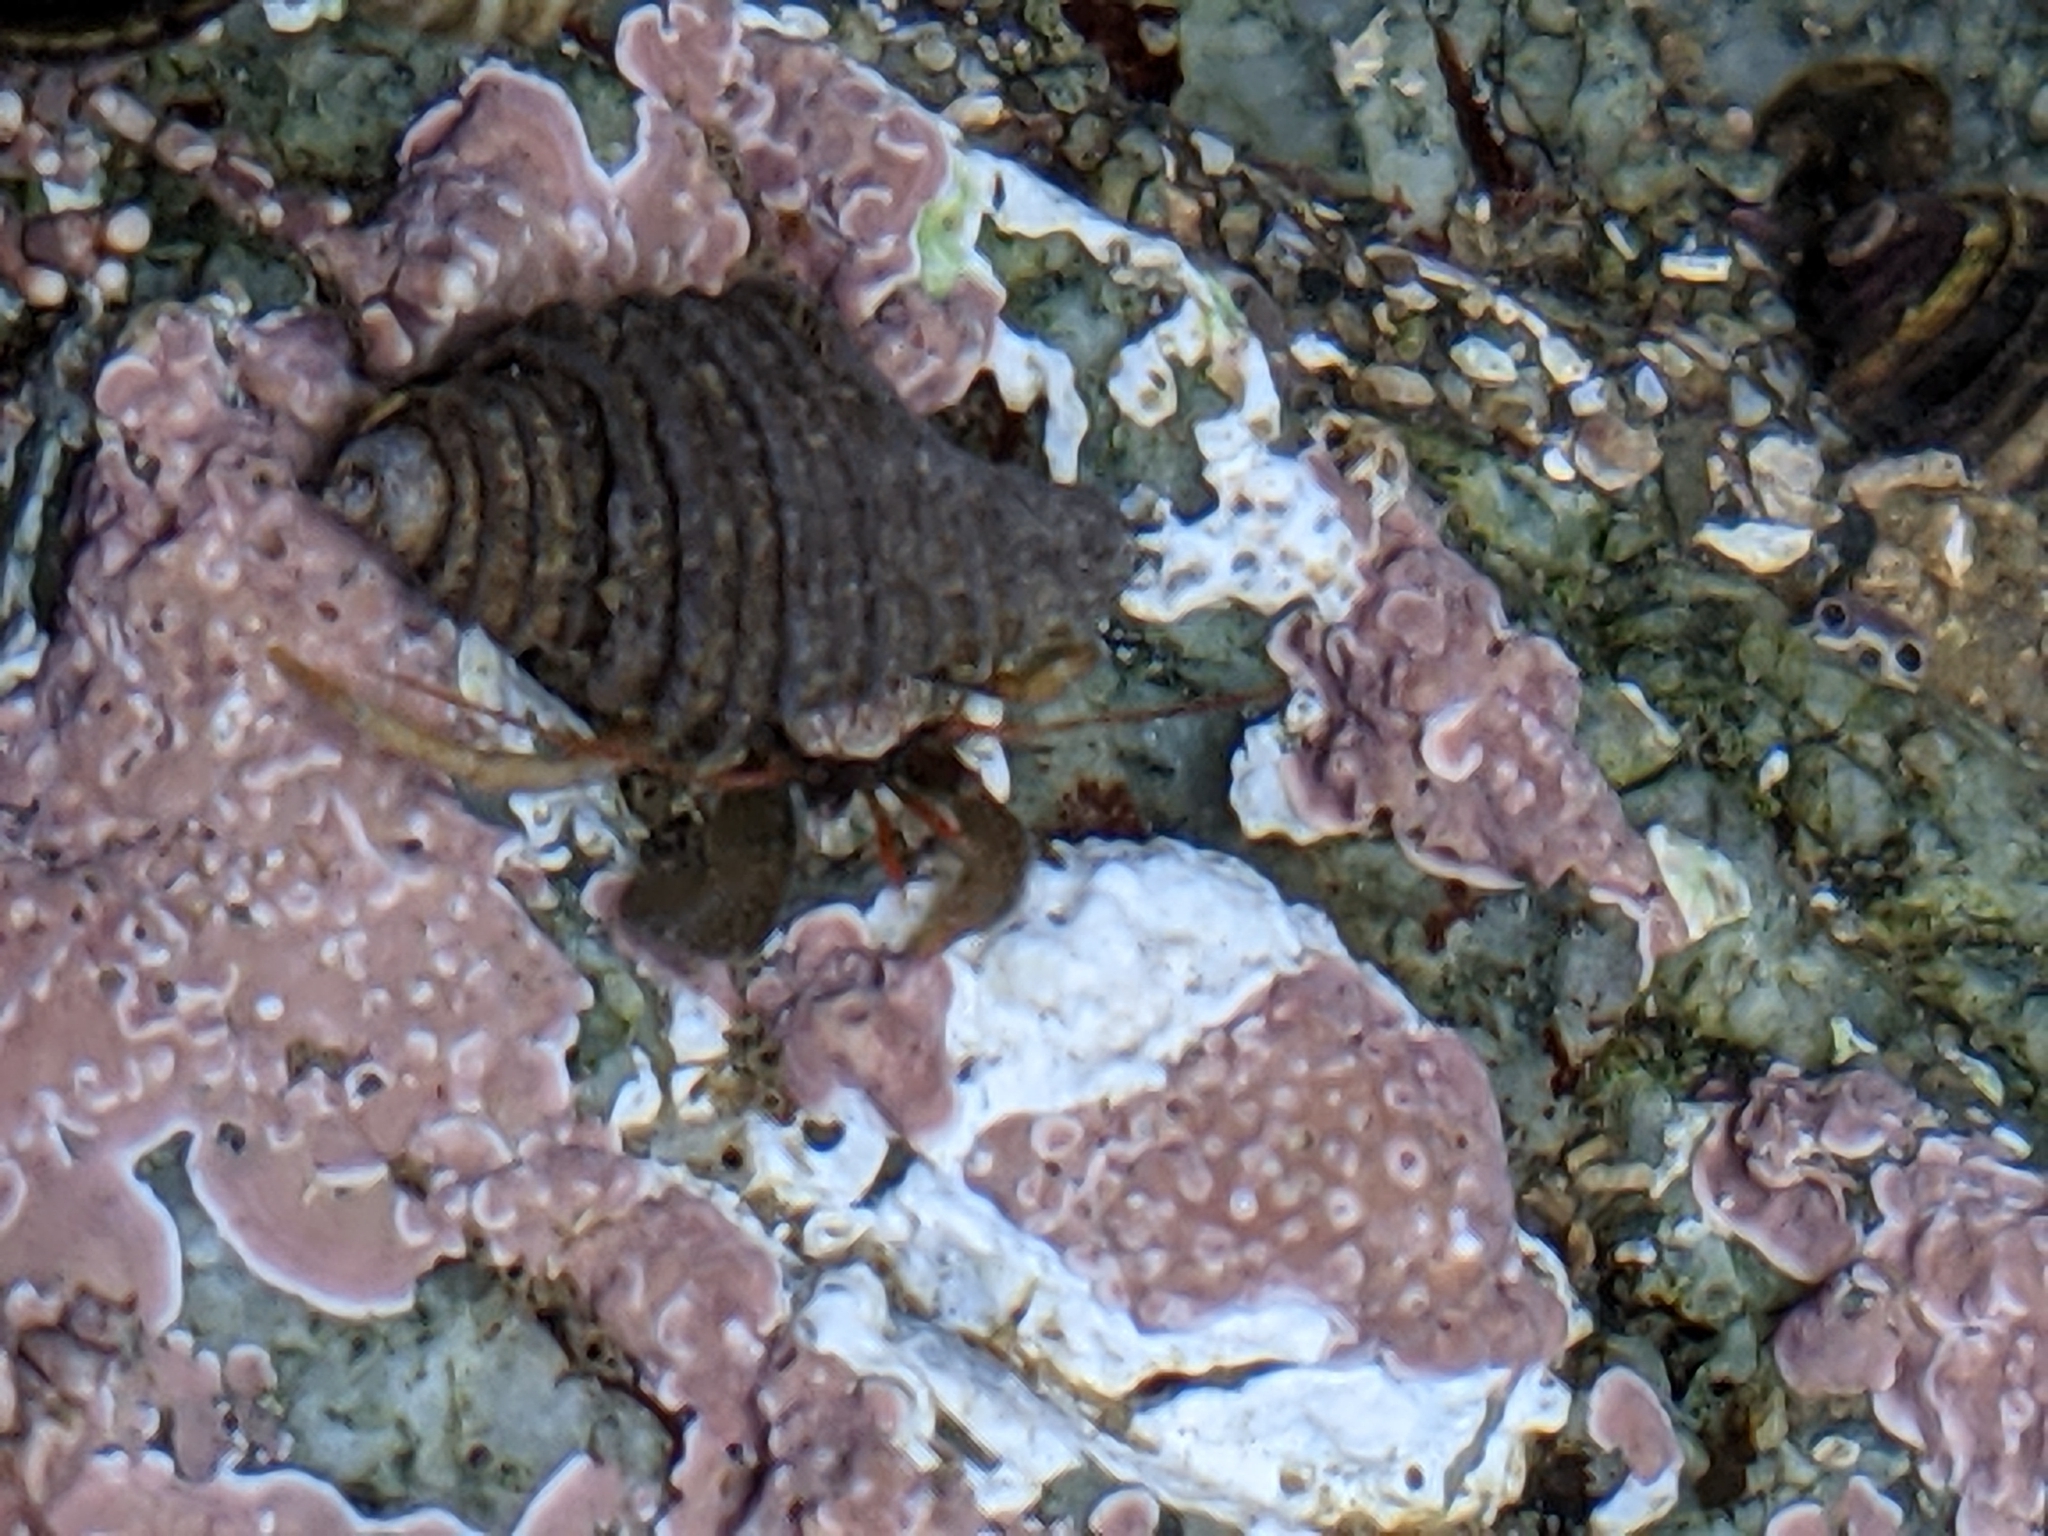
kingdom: Animalia
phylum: Arthropoda
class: Malacostraca
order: Decapoda
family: Paguridae
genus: Pagurus
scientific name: Pagurus granosimanus
